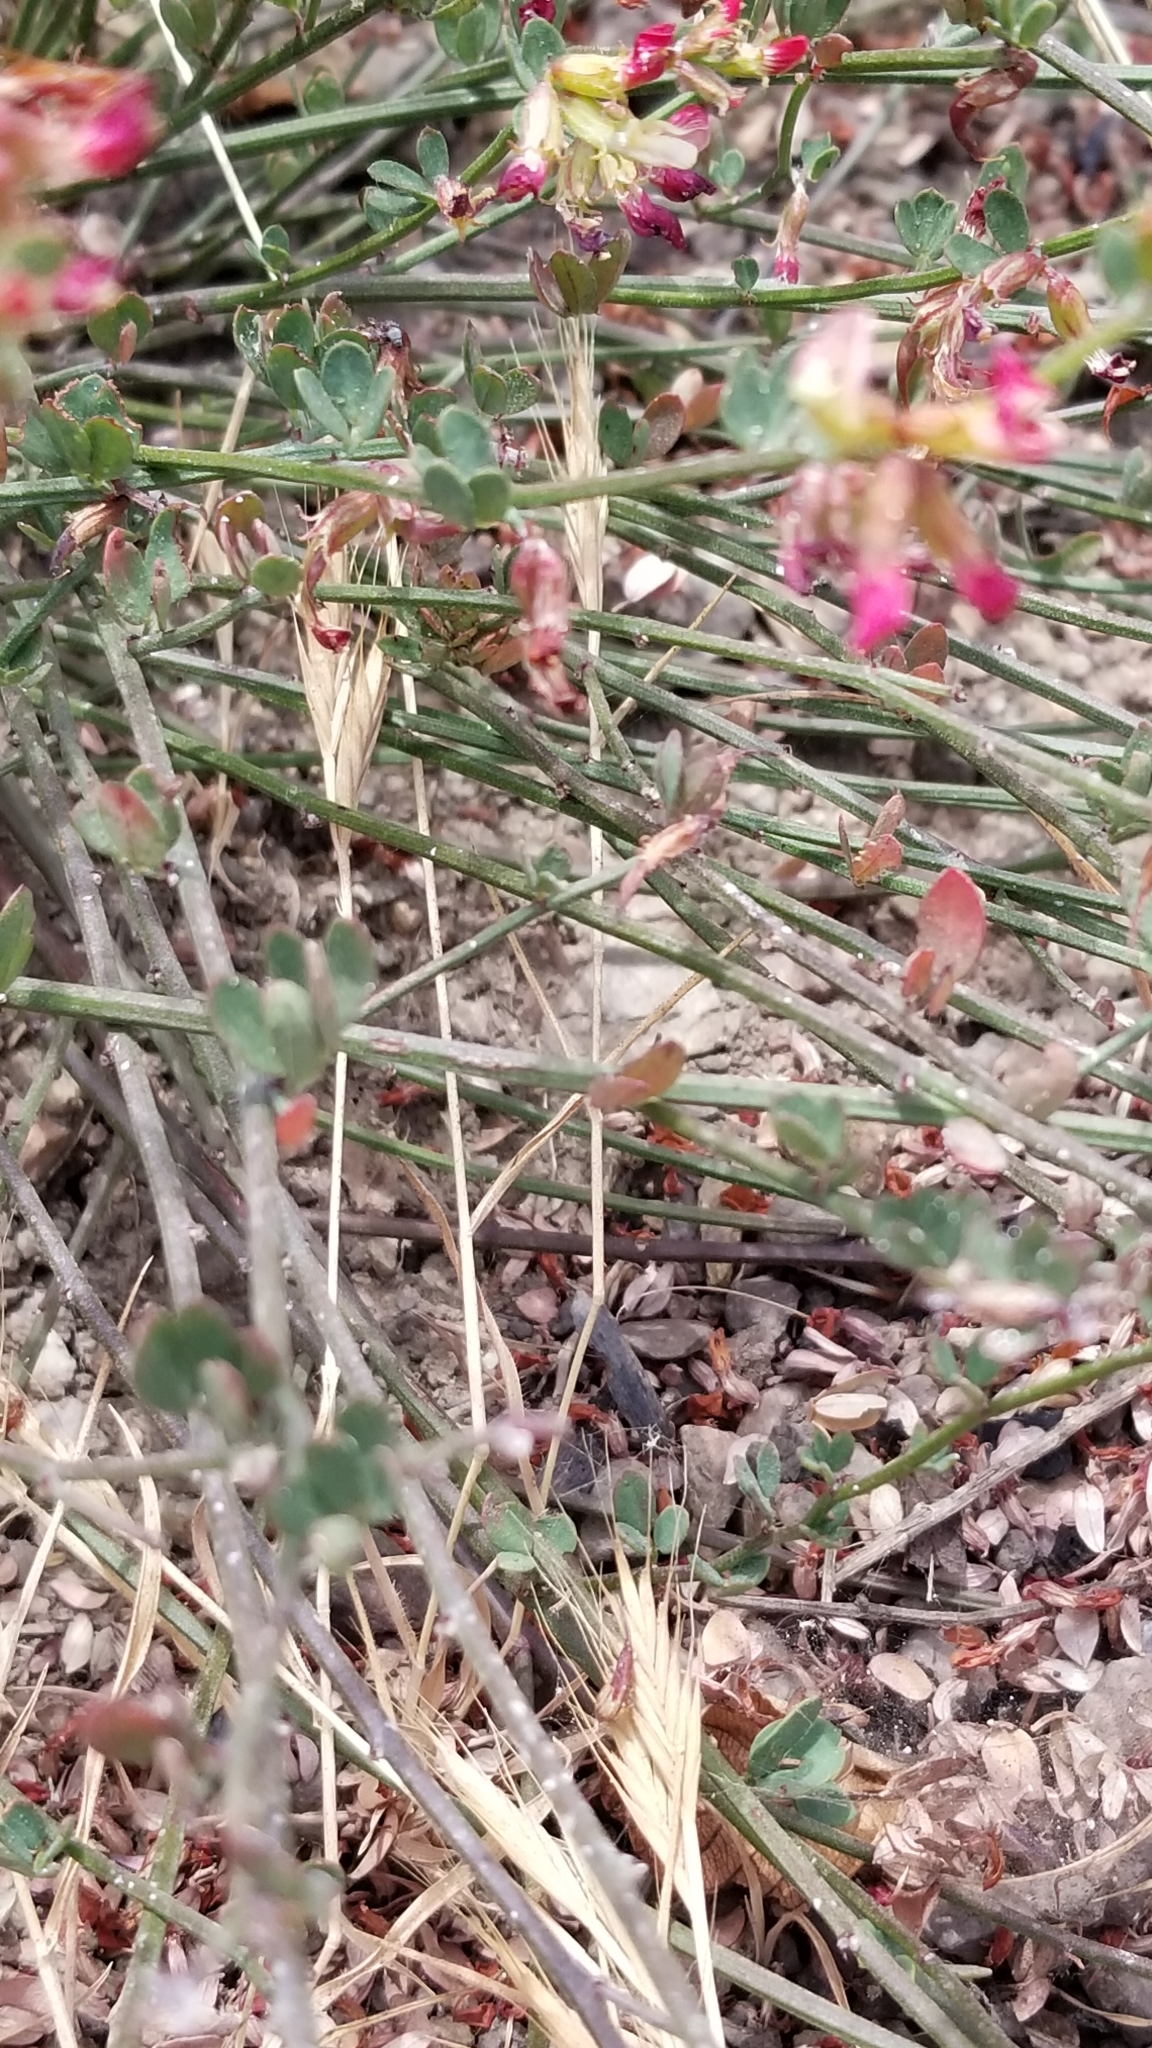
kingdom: Plantae
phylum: Tracheophyta
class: Magnoliopsida
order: Fabales
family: Fabaceae
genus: Acmispon
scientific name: Acmispon cytisoides
